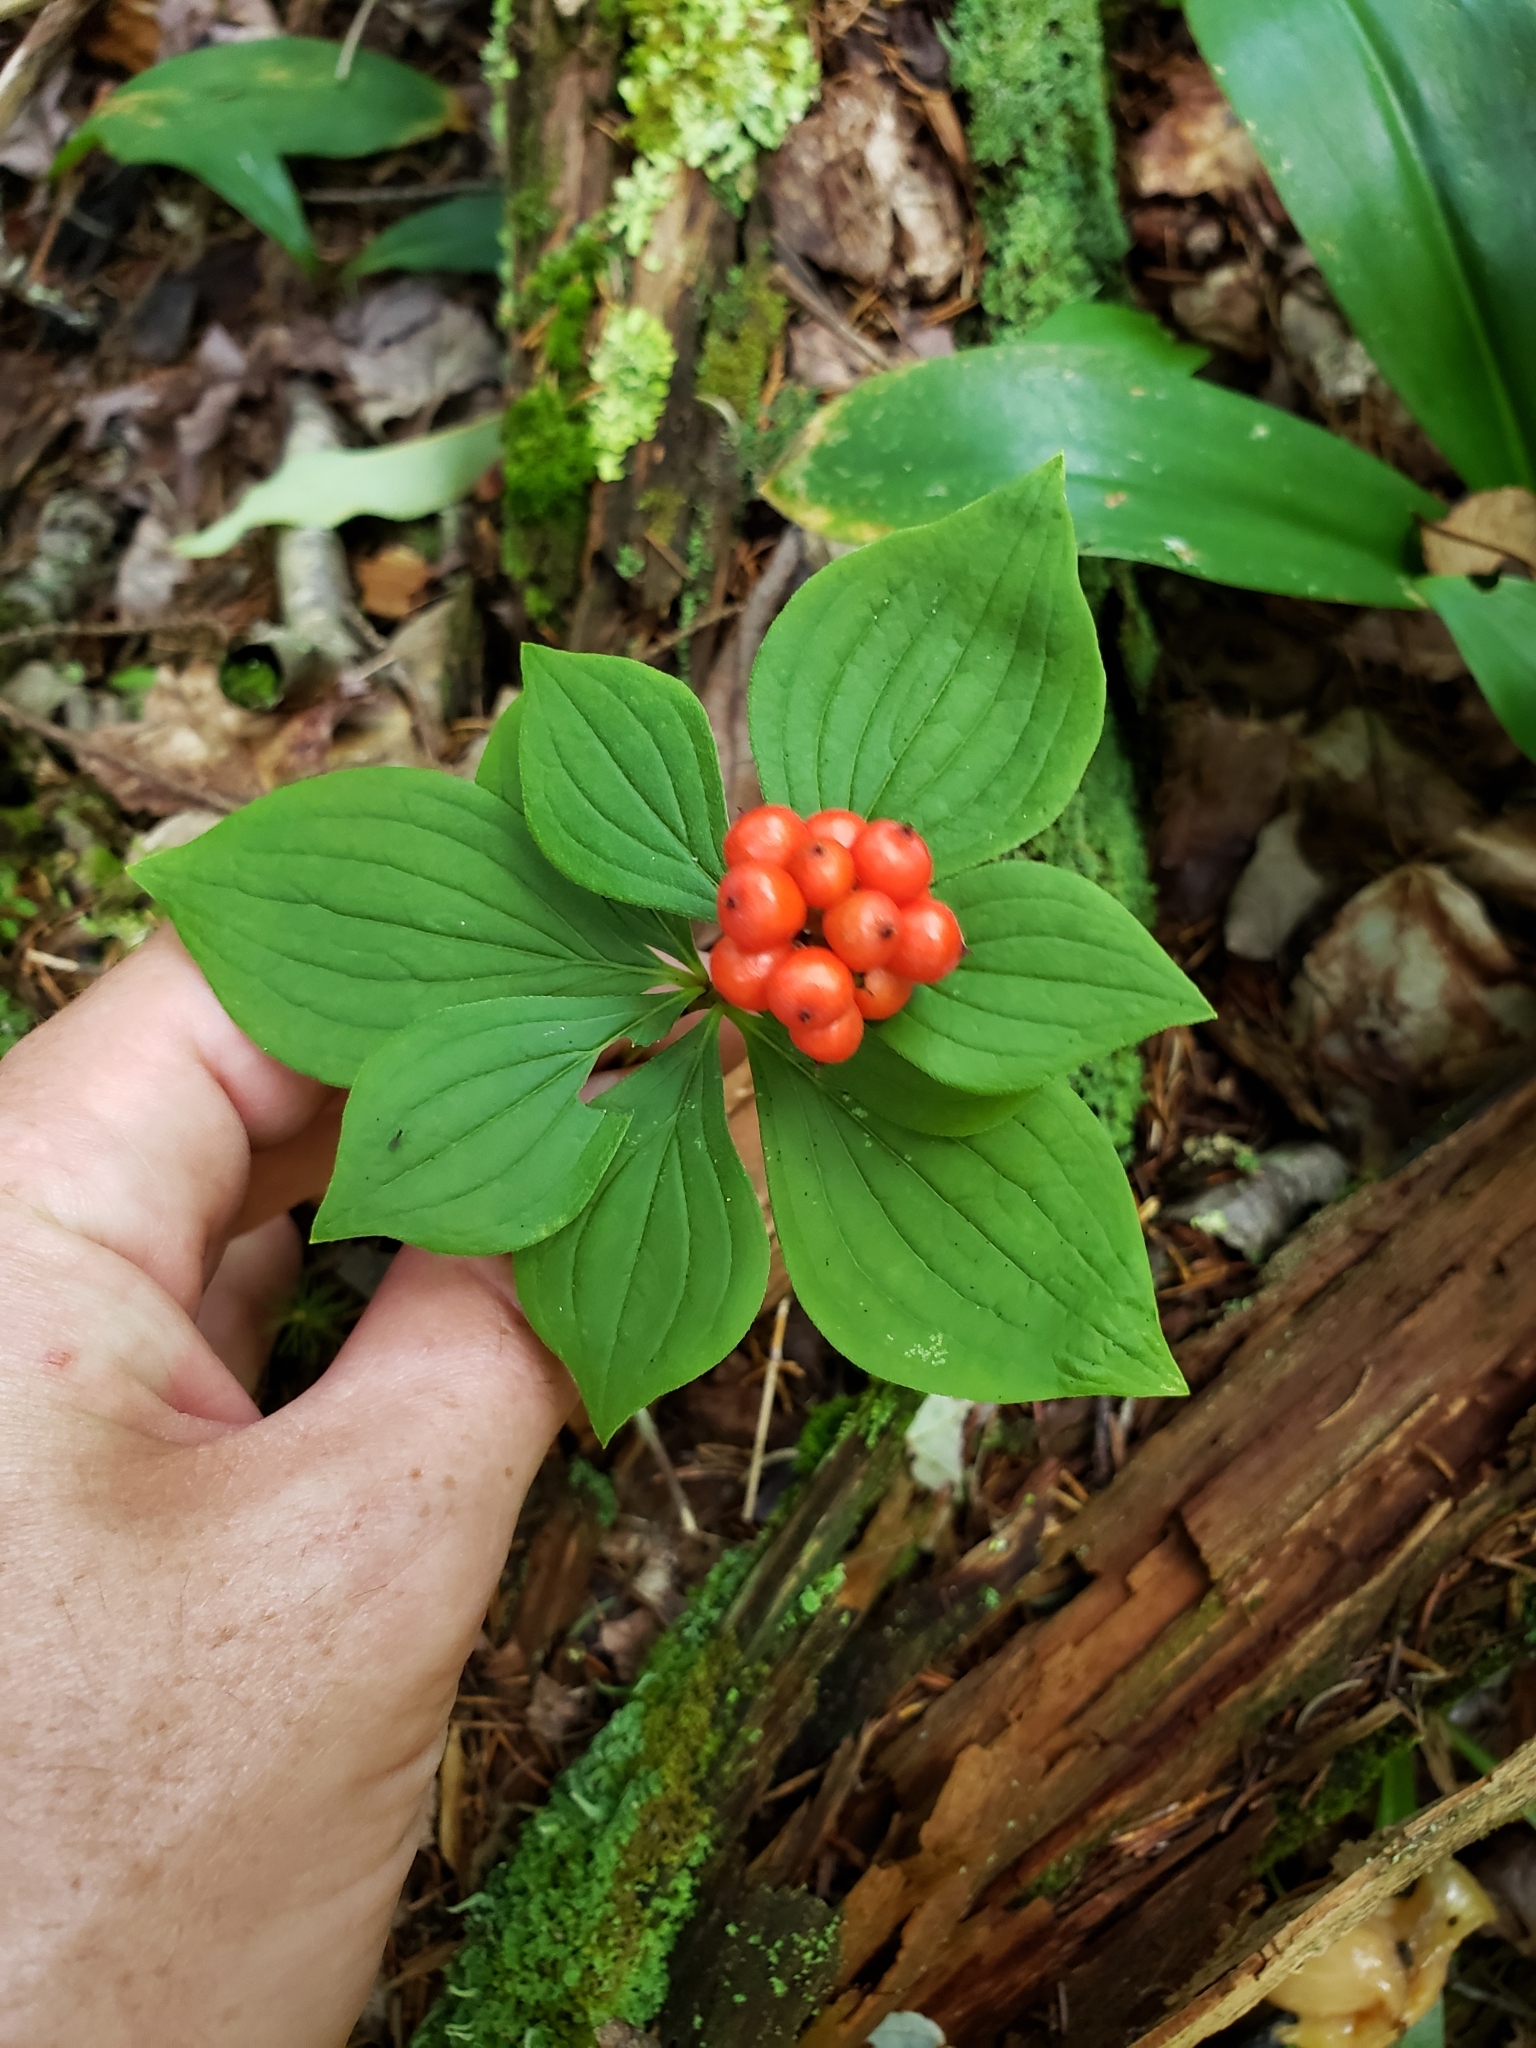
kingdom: Plantae
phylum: Tracheophyta
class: Magnoliopsida
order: Cornales
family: Cornaceae
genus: Cornus
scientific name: Cornus canadensis
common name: Creeping dogwood
